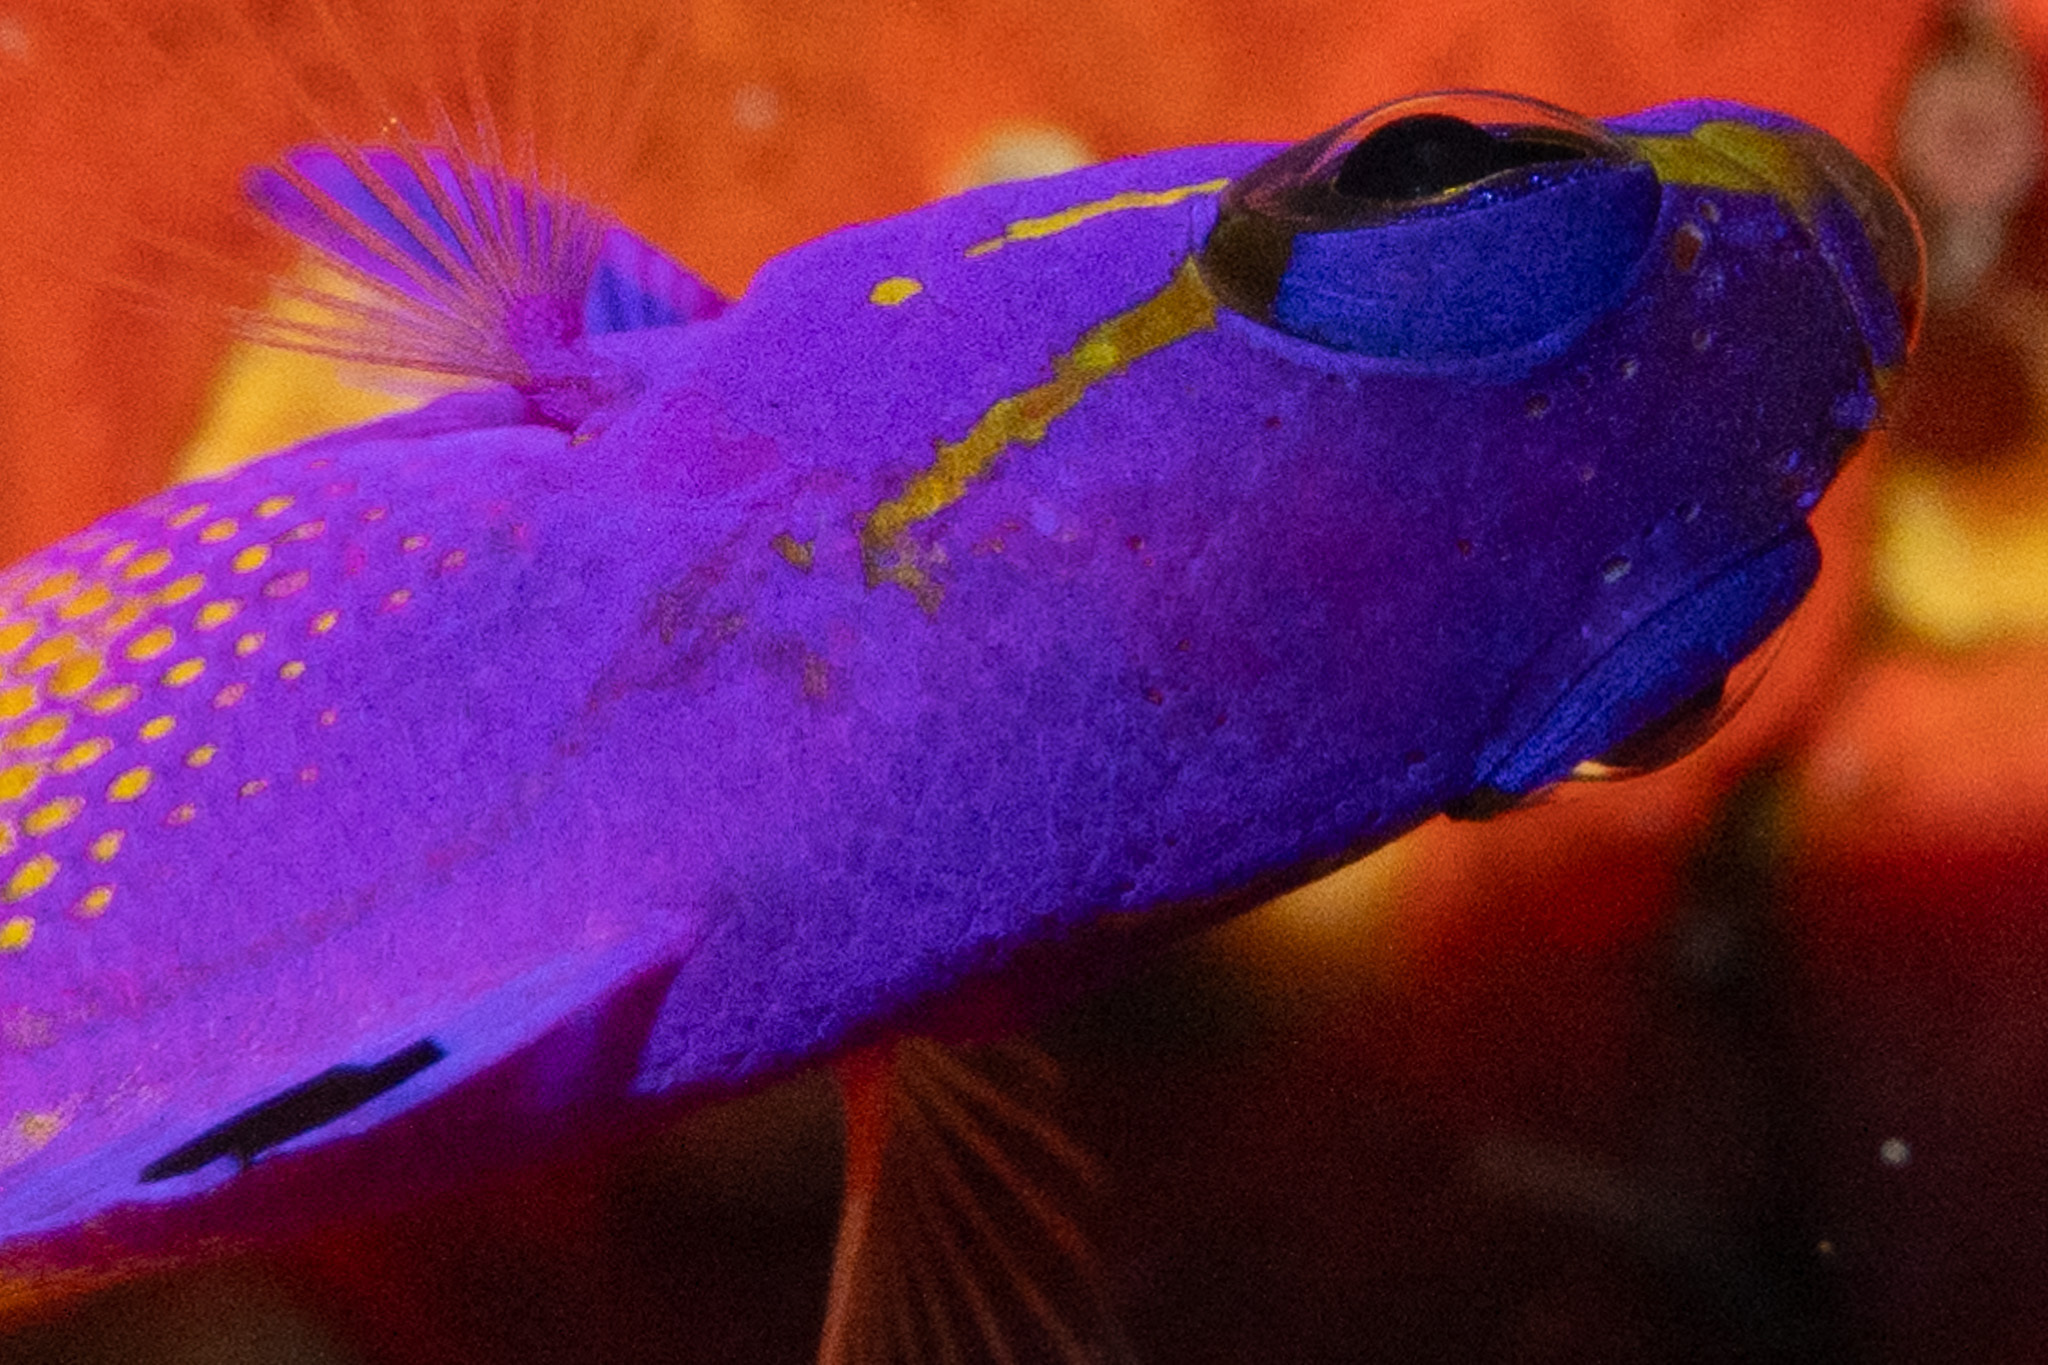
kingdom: Animalia
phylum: Chordata
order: Perciformes
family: Grammatidae
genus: Gramma
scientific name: Gramma loreto
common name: Fairy basslet
